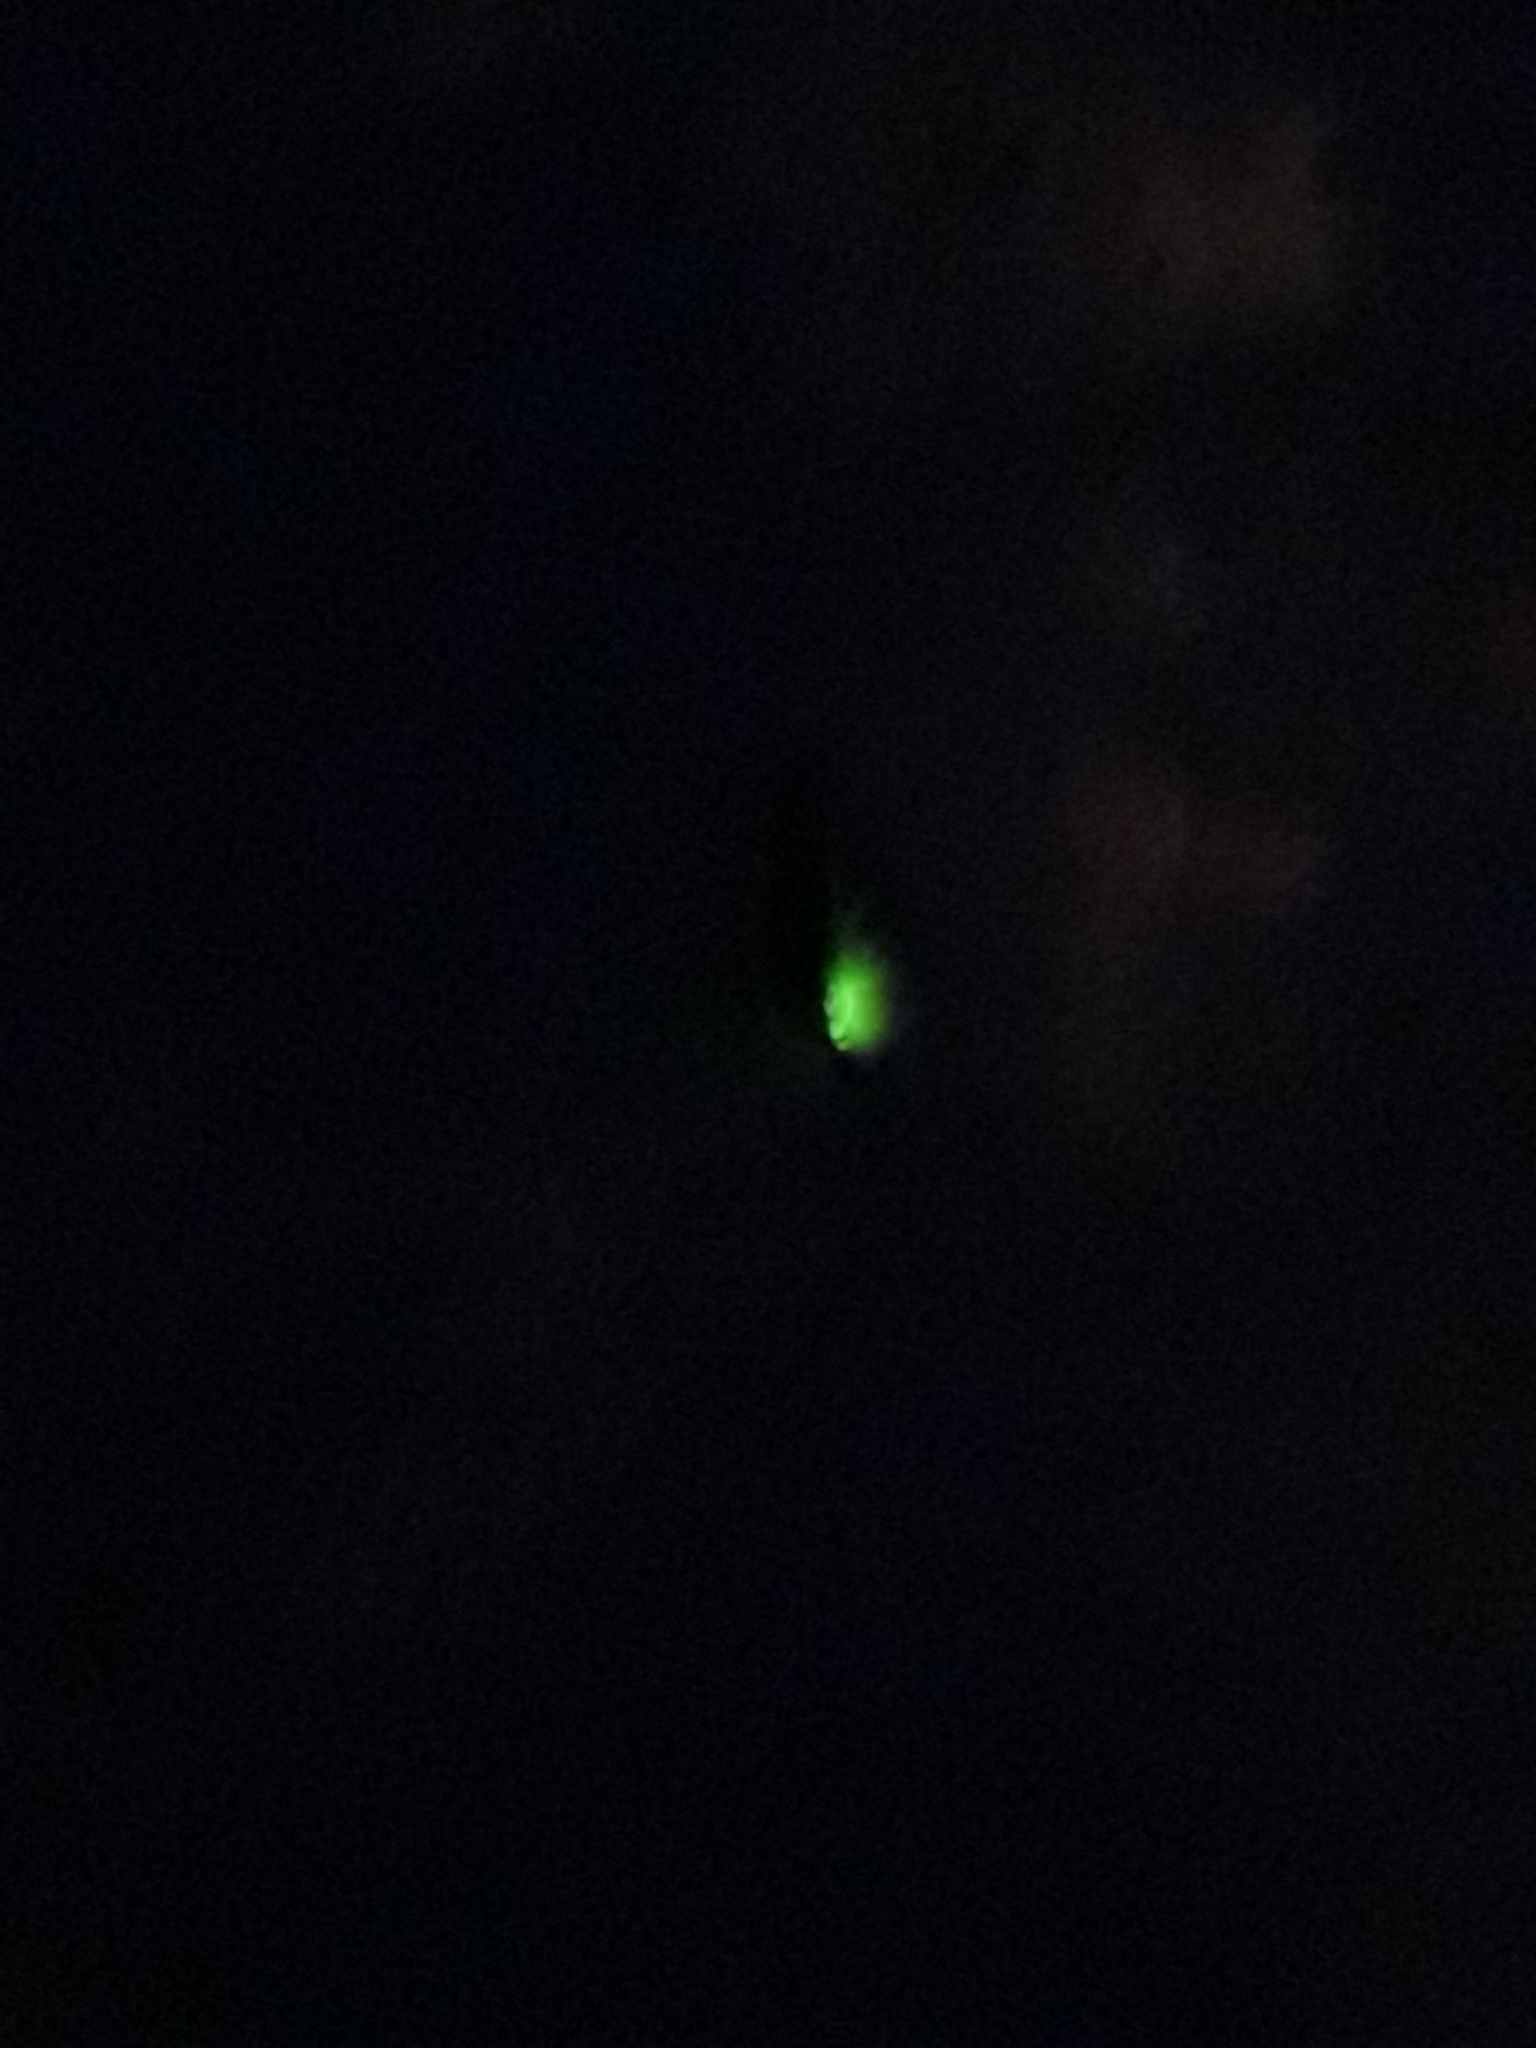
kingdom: Animalia
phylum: Arthropoda
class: Insecta
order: Coleoptera
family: Lampyridae
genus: Lampyris
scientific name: Lampyris noctiluca
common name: Glow-worm
